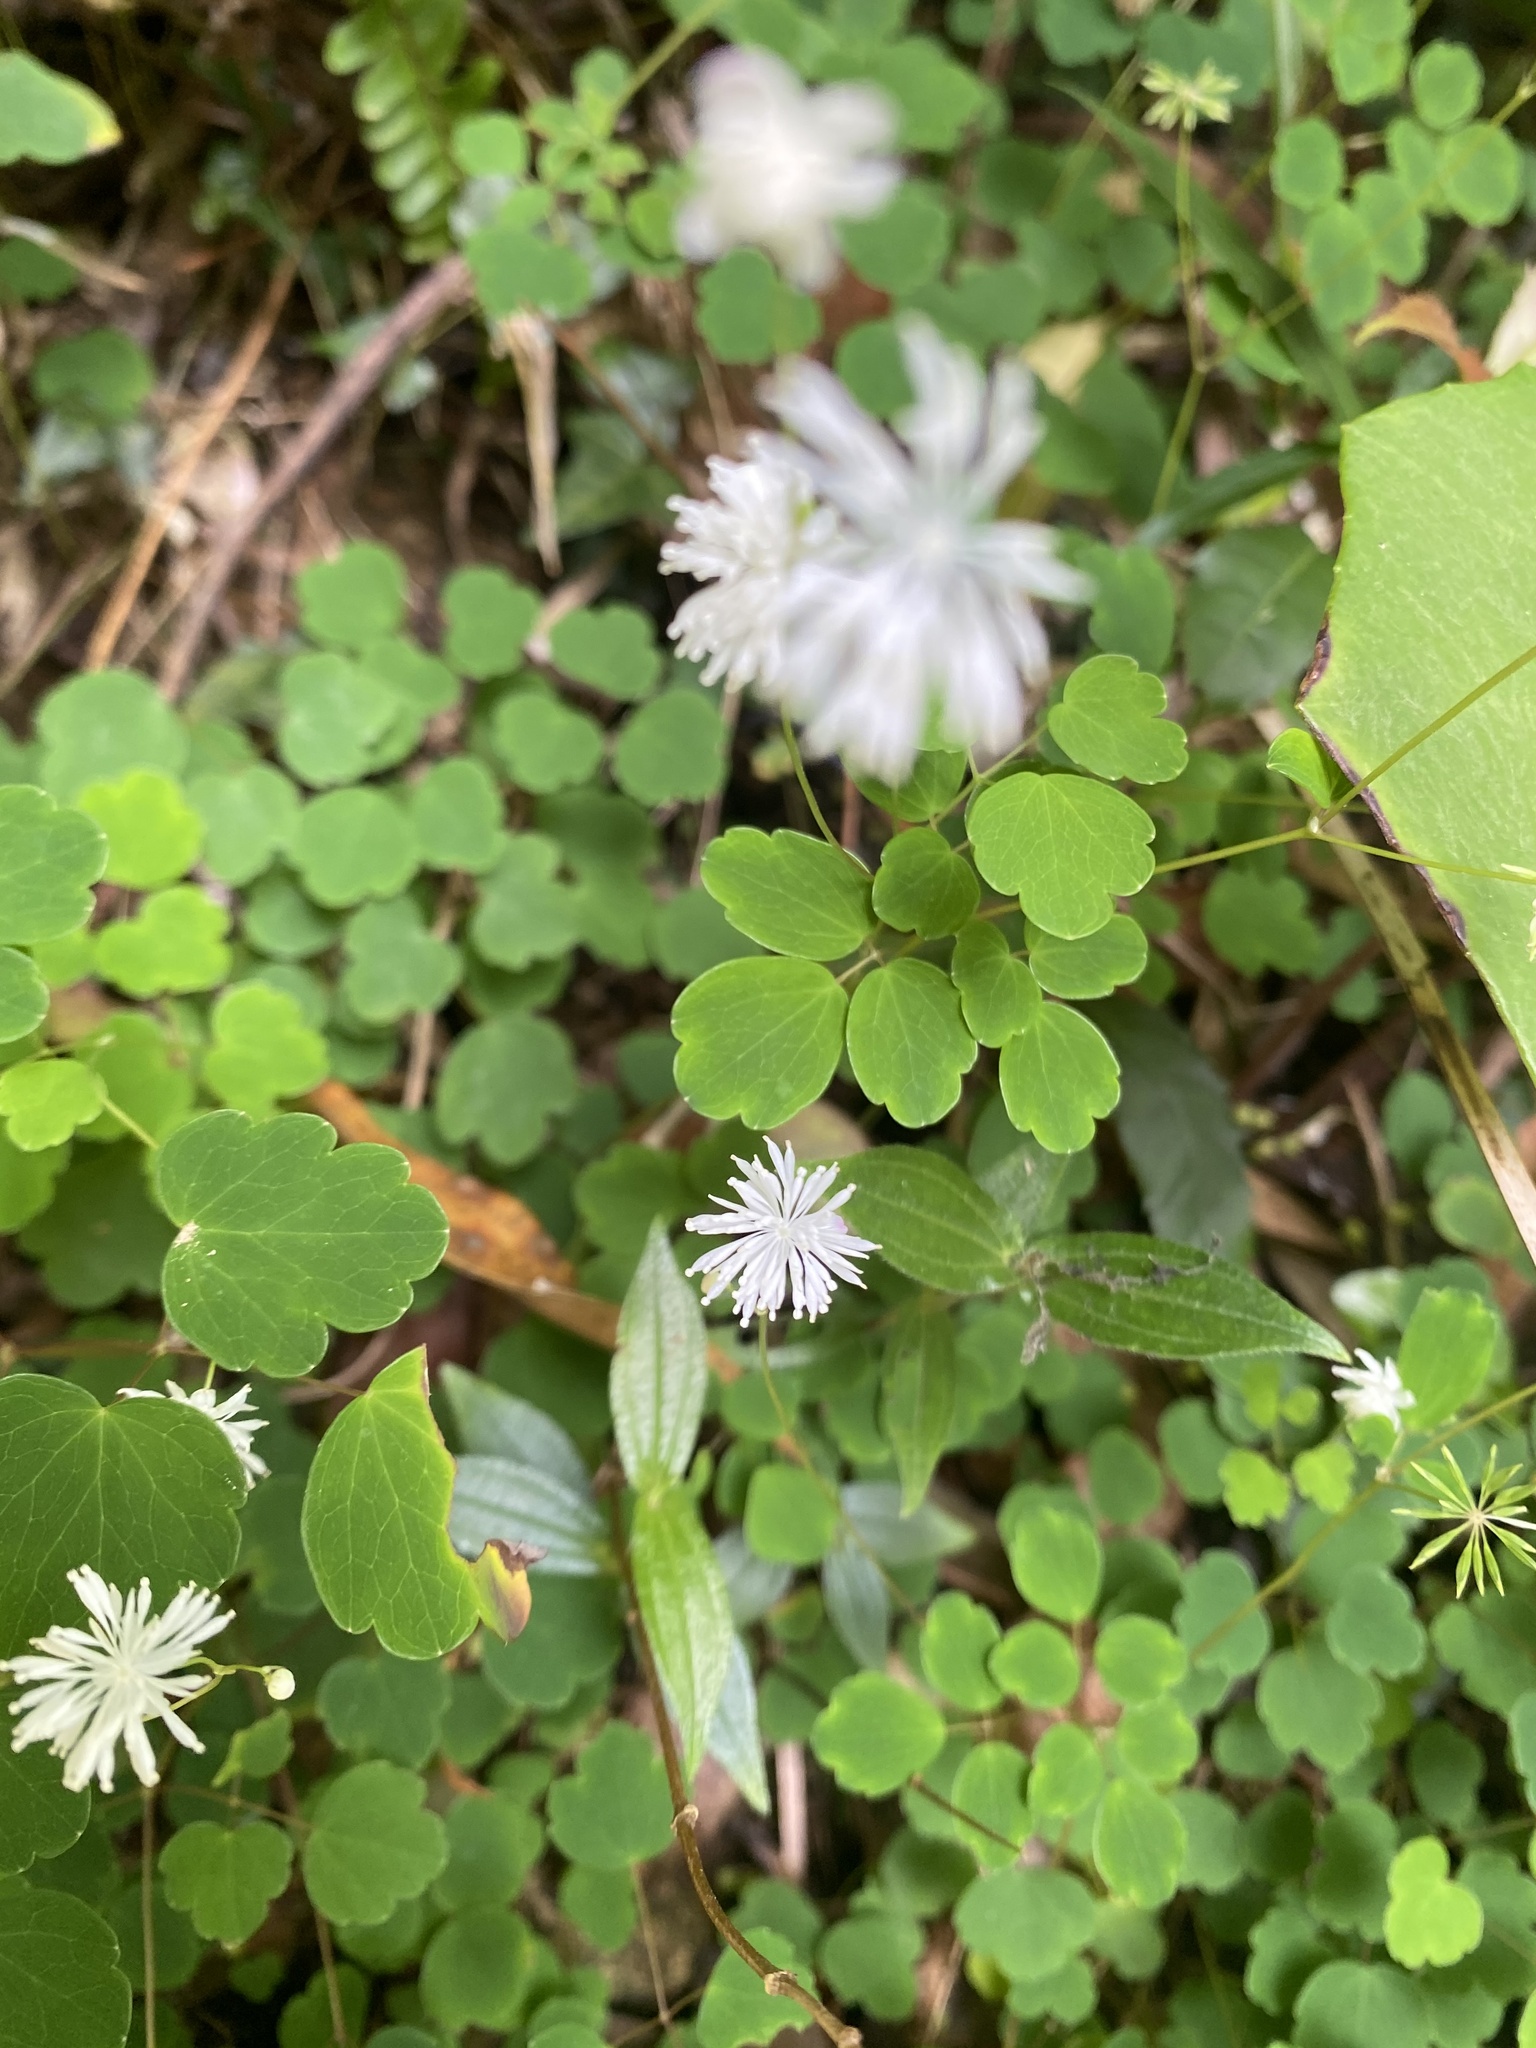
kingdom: Plantae
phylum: Tracheophyta
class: Magnoliopsida
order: Ranunculales
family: Ranunculaceae
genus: Thalictrum
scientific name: Thalictrum urbaini
